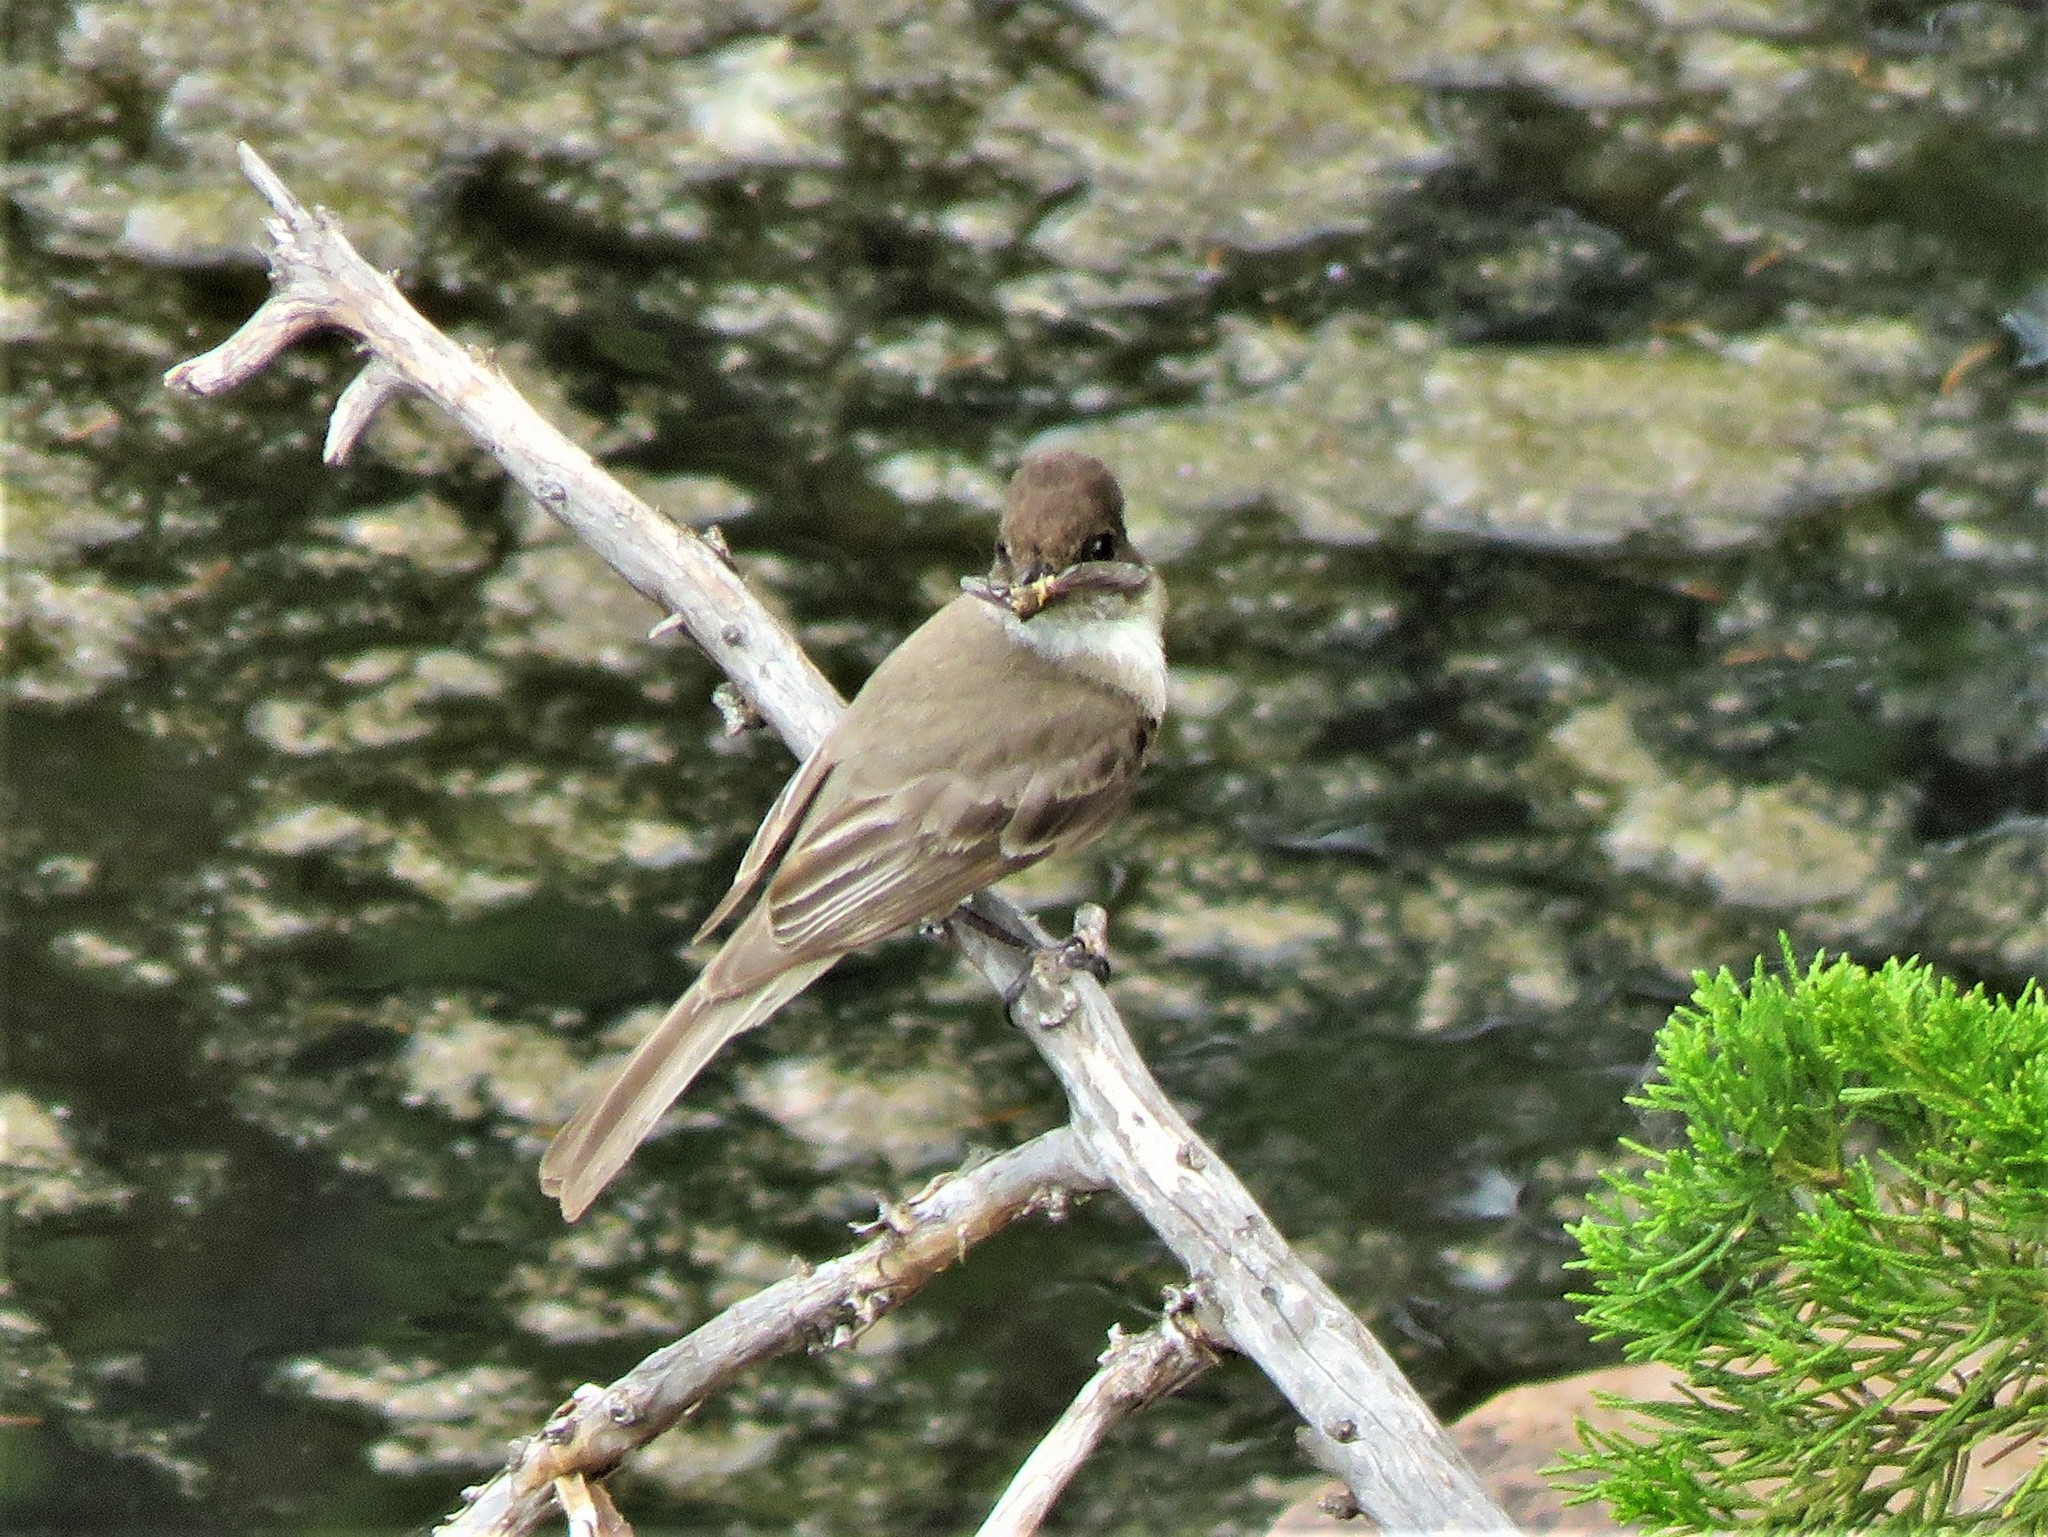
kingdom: Animalia
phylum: Chordata
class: Aves
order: Passeriformes
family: Tyrannidae
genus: Sayornis
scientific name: Sayornis phoebe
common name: Eastern phoebe
